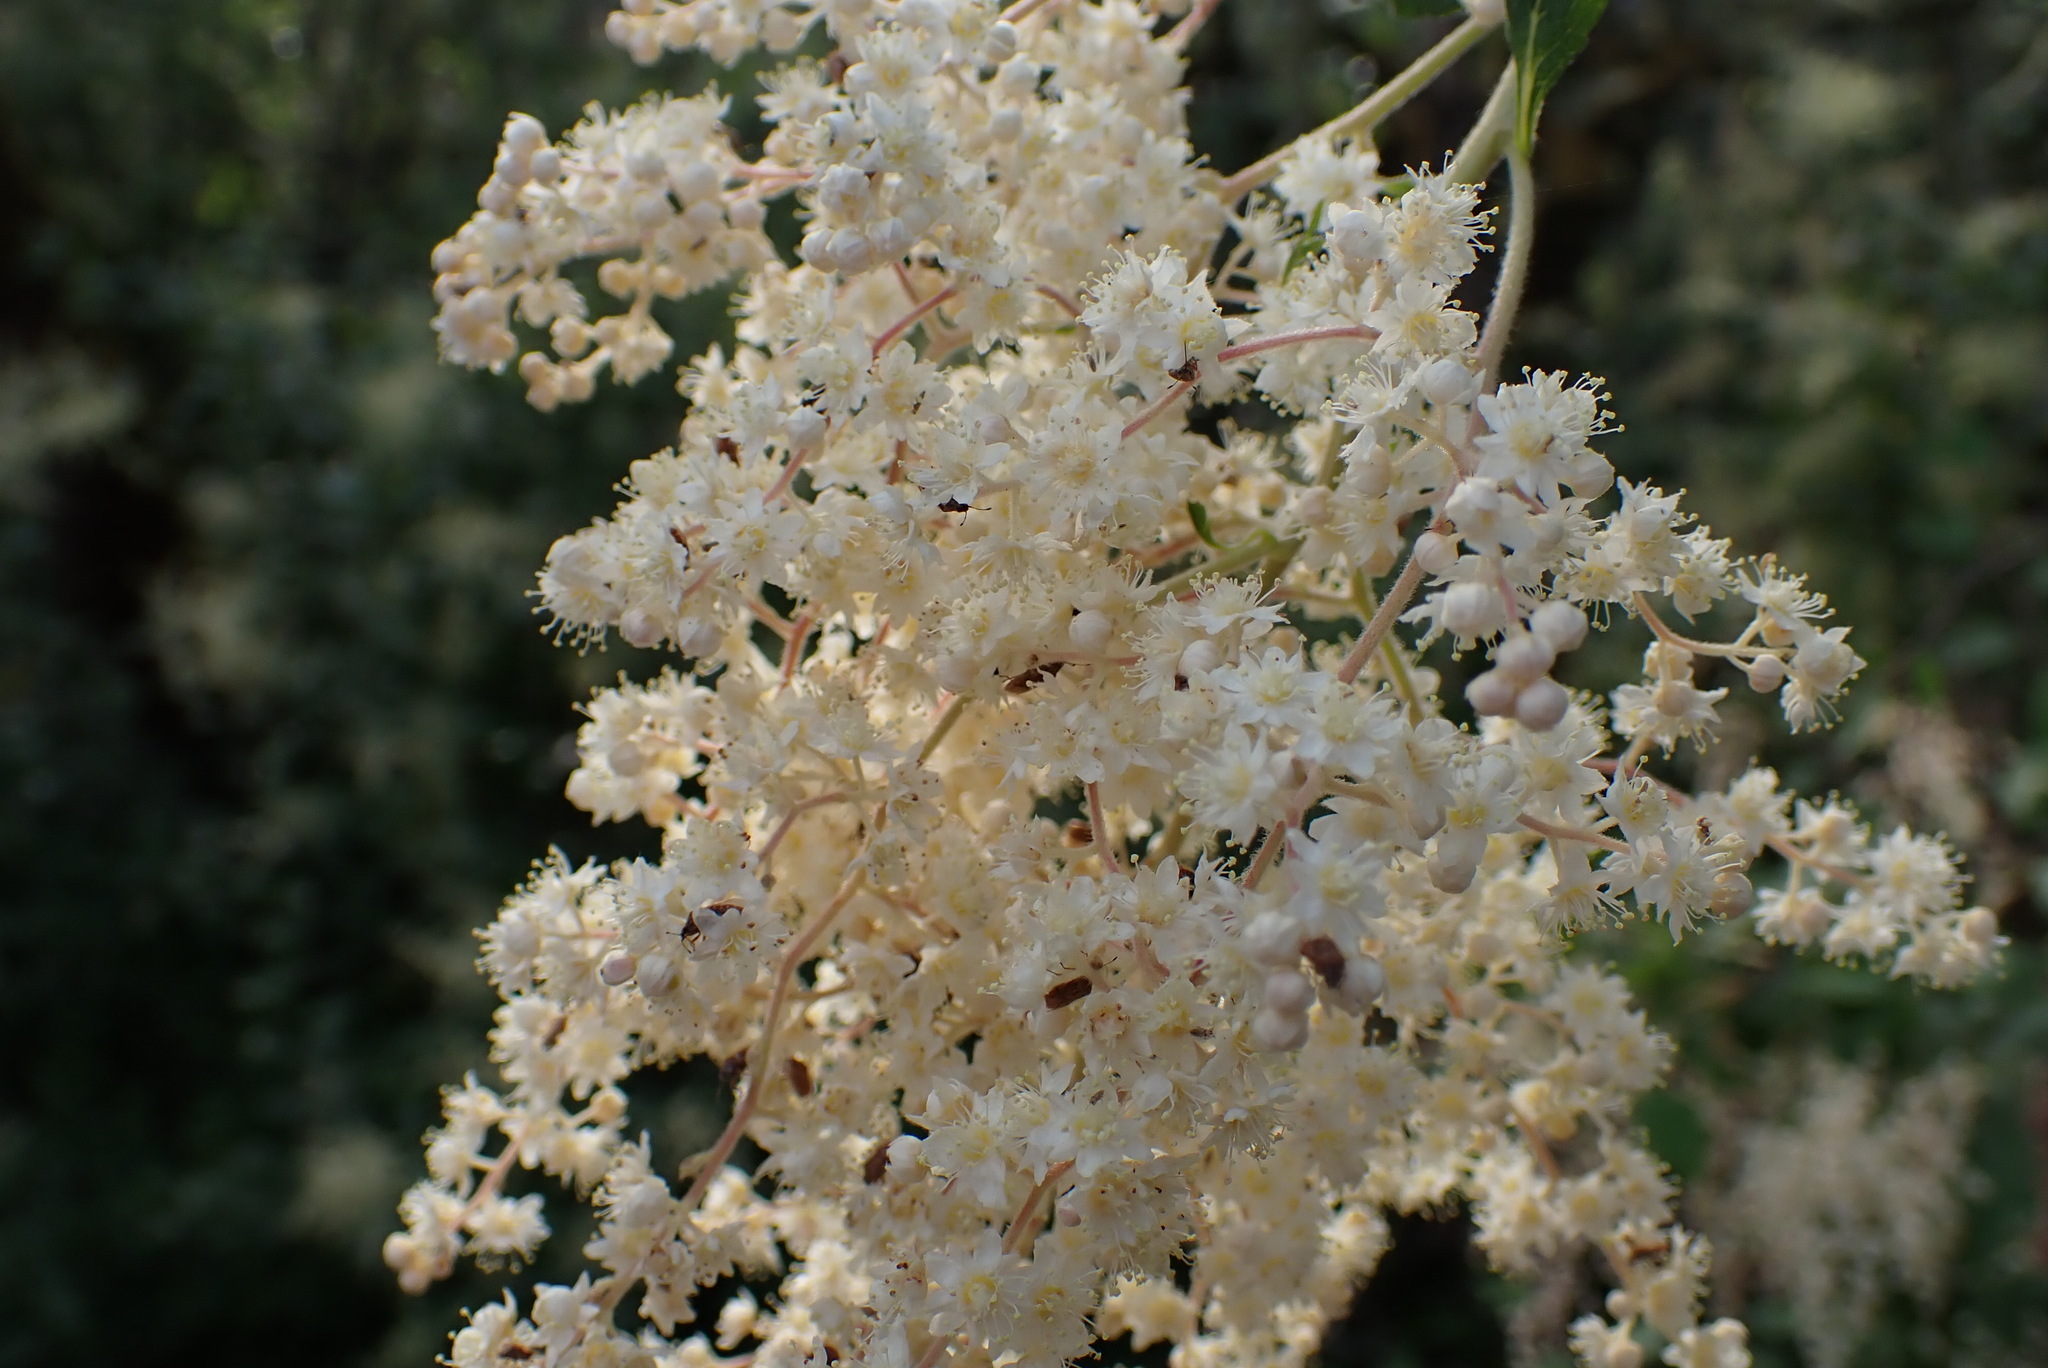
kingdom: Plantae
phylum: Tracheophyta
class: Magnoliopsida
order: Rosales
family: Rosaceae
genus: Holodiscus
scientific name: Holodiscus discolor
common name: Oceanspray
